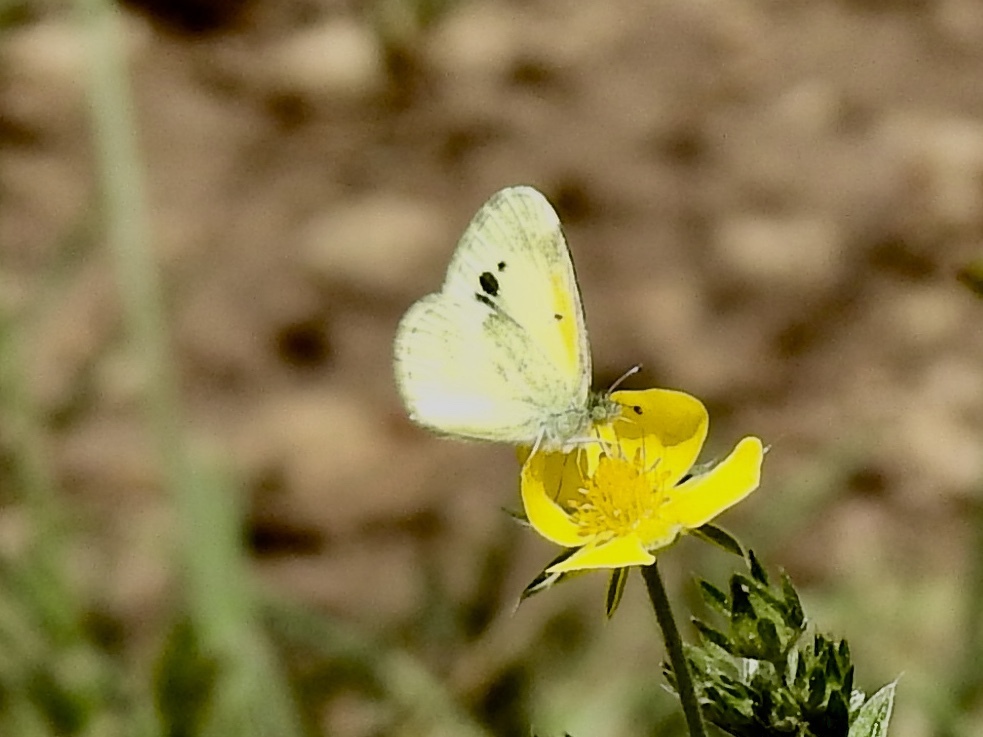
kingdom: Animalia
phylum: Arthropoda
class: Insecta
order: Lepidoptera
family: Pieridae
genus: Nathalis
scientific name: Nathalis iole
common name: Dainty sulphur
